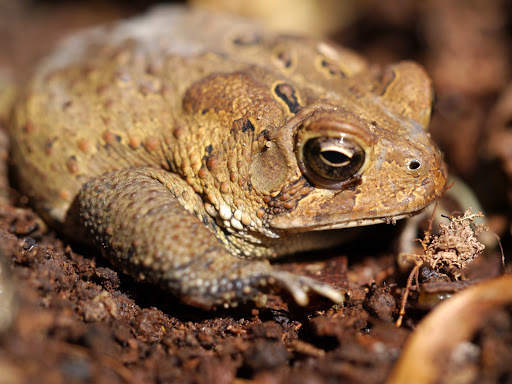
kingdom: Animalia
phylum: Chordata
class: Amphibia
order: Anura
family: Bufonidae
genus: Anaxyrus
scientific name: Anaxyrus americanus
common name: American toad
